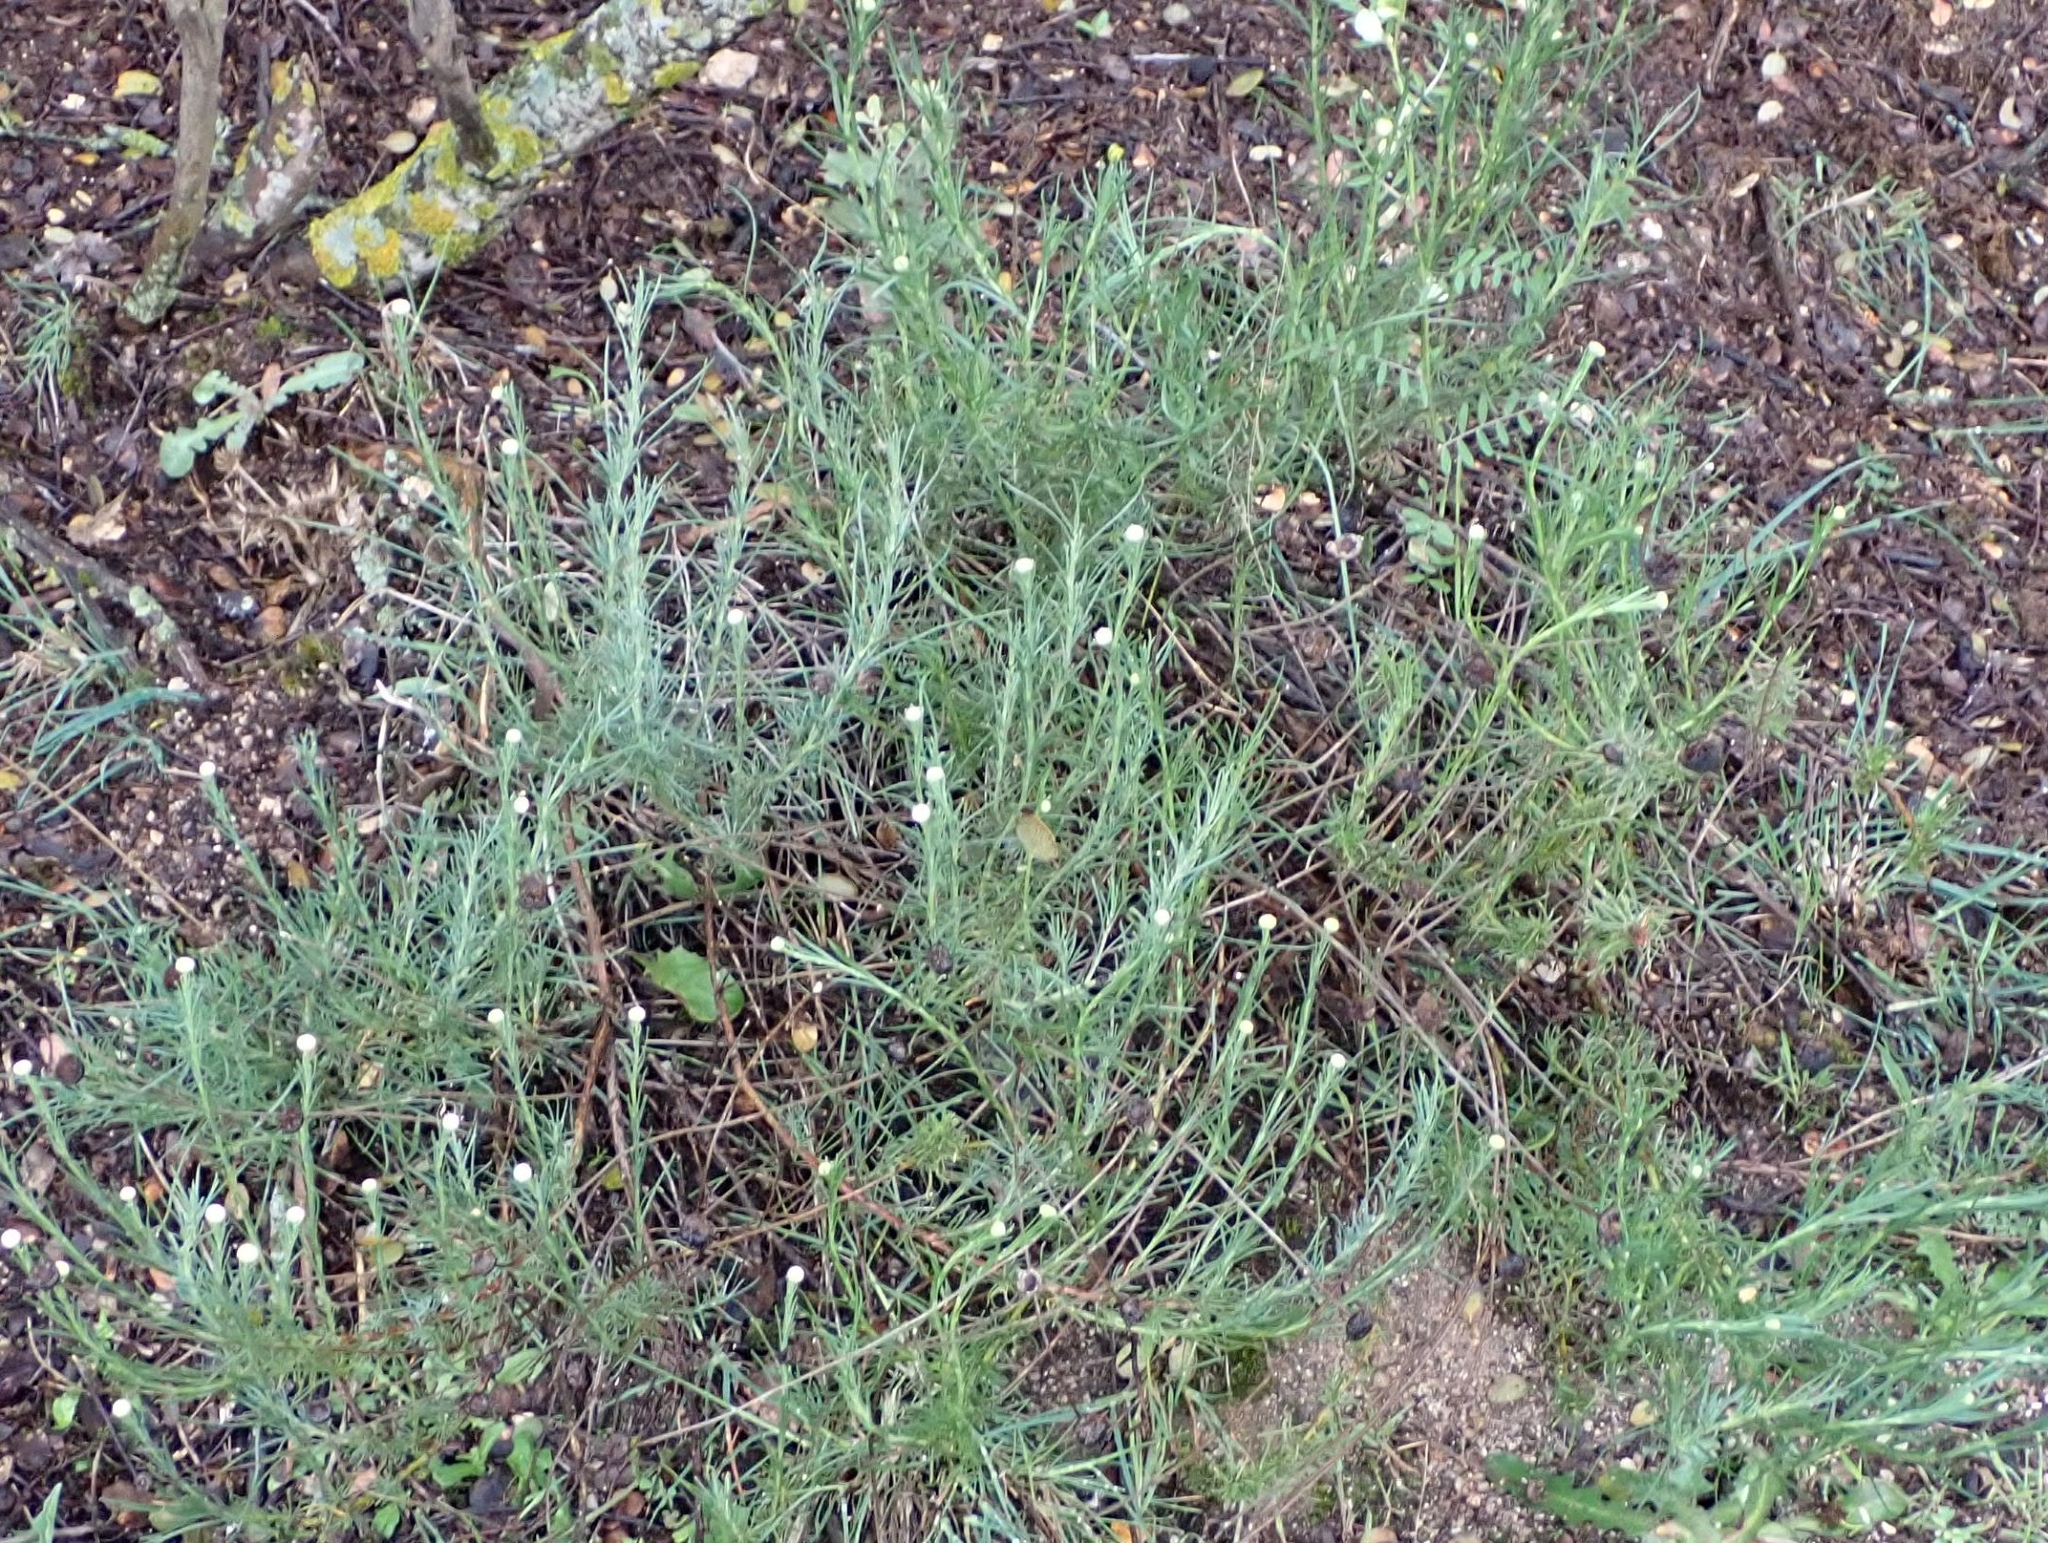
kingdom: Plantae
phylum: Tracheophyta
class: Magnoliopsida
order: Asterales
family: Asteraceae
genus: Santolina
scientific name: Santolina rosmarinifolia
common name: Holy-flax
